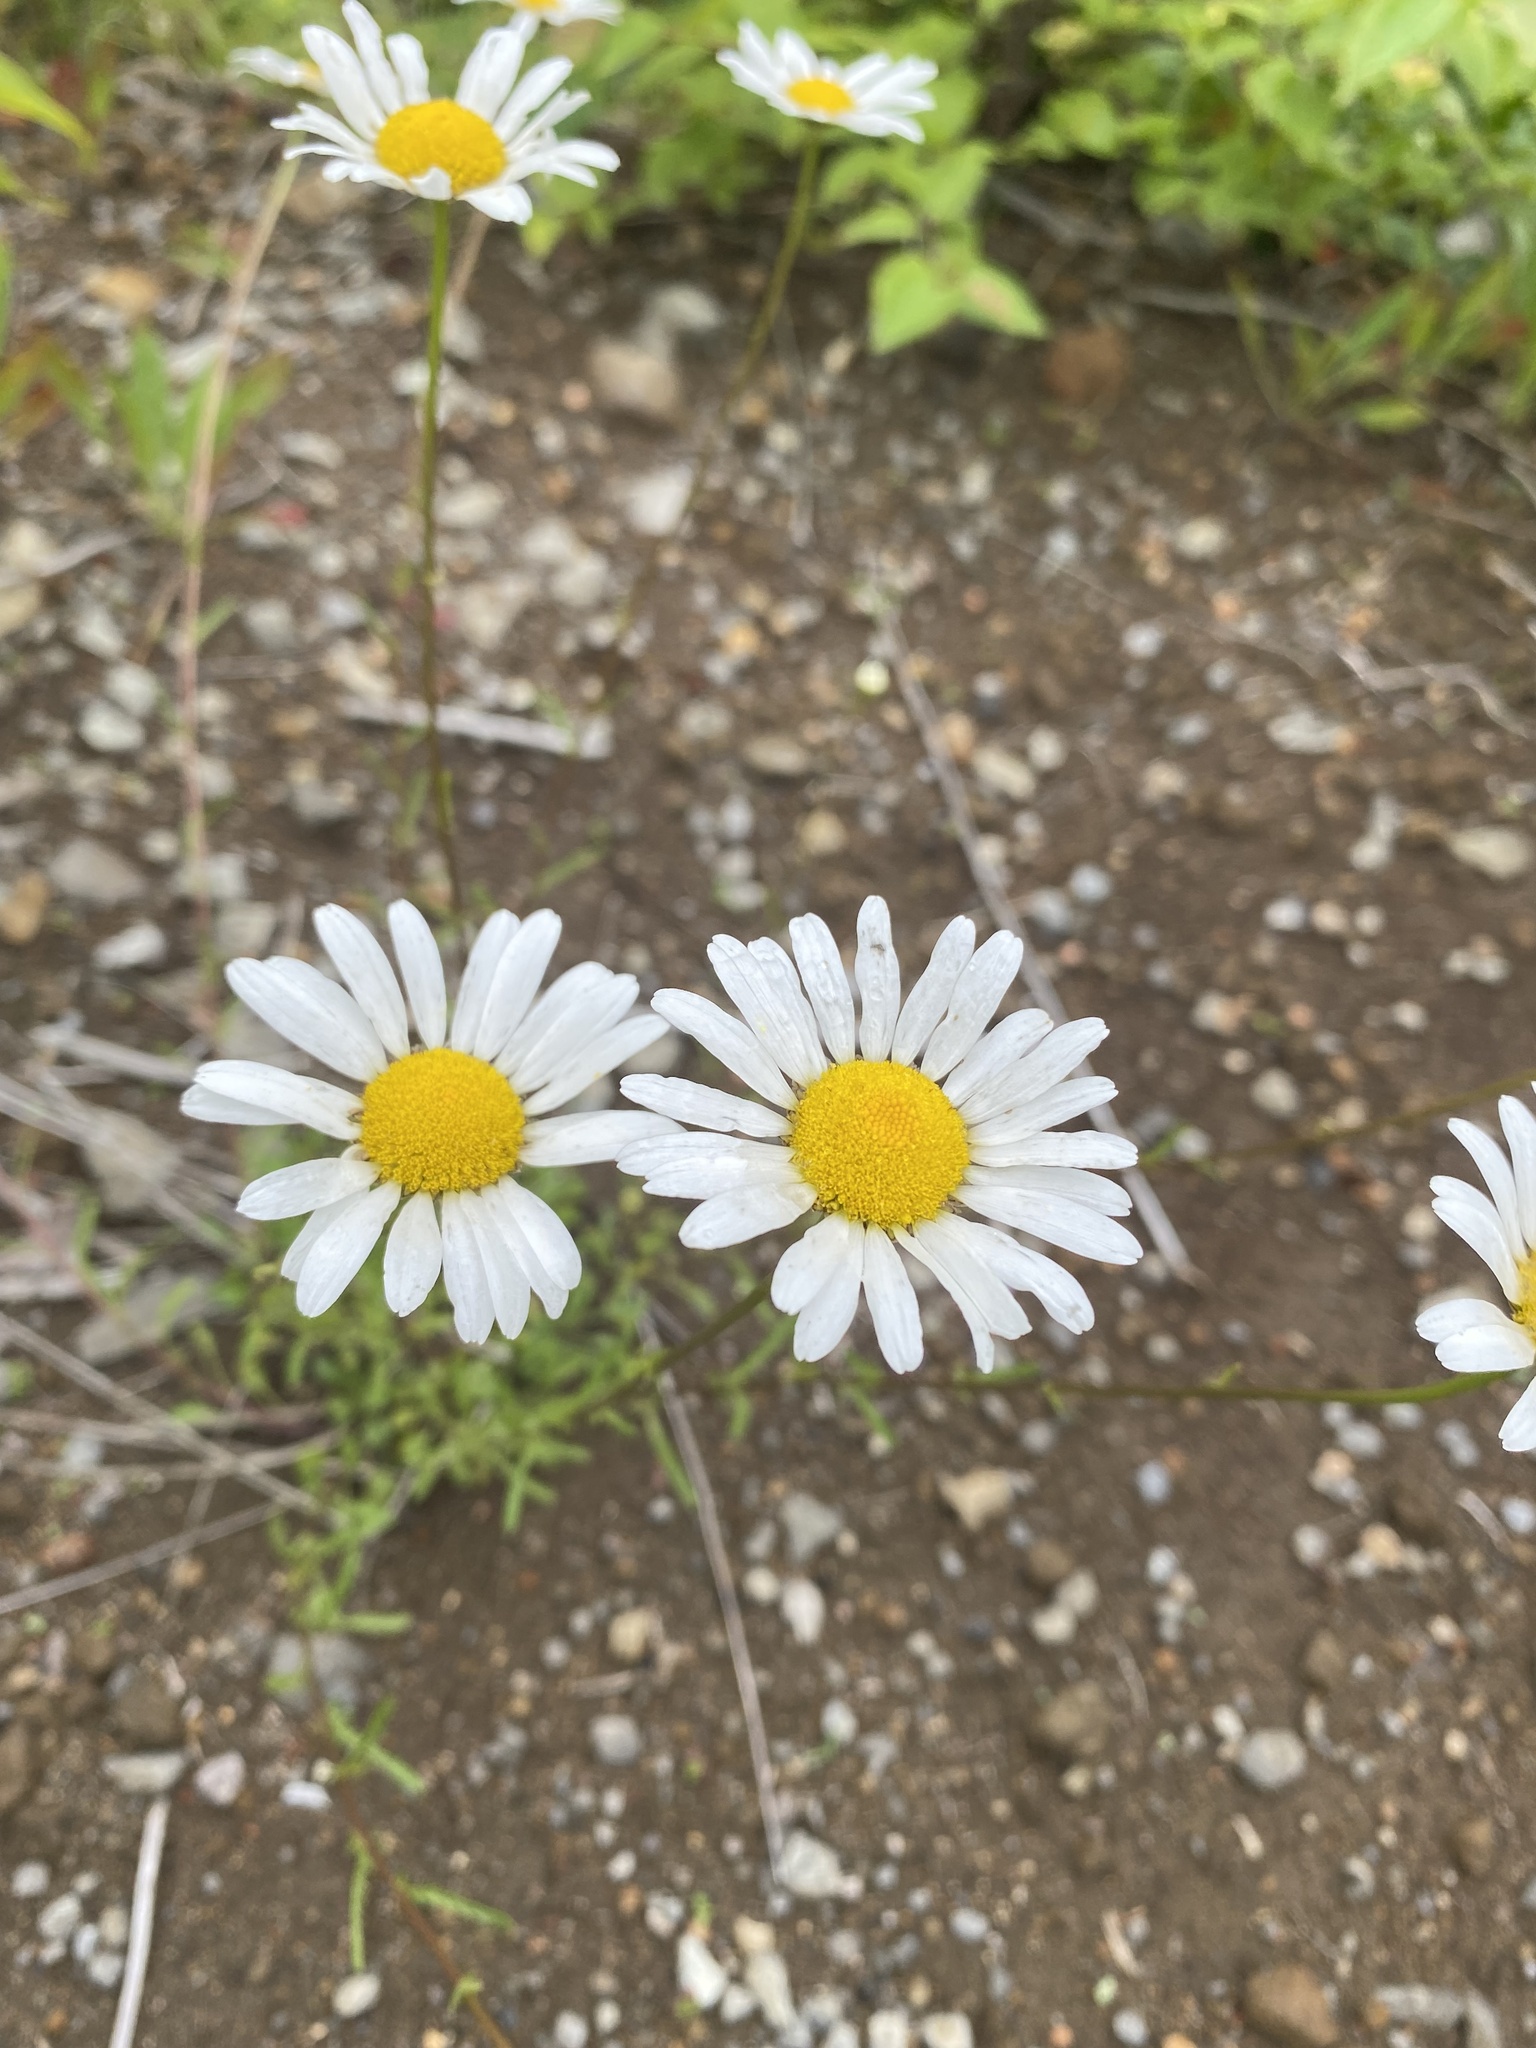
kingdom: Plantae
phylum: Tracheophyta
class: Magnoliopsida
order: Asterales
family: Asteraceae
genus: Leucanthemum
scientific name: Leucanthemum vulgare
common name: Oxeye daisy
